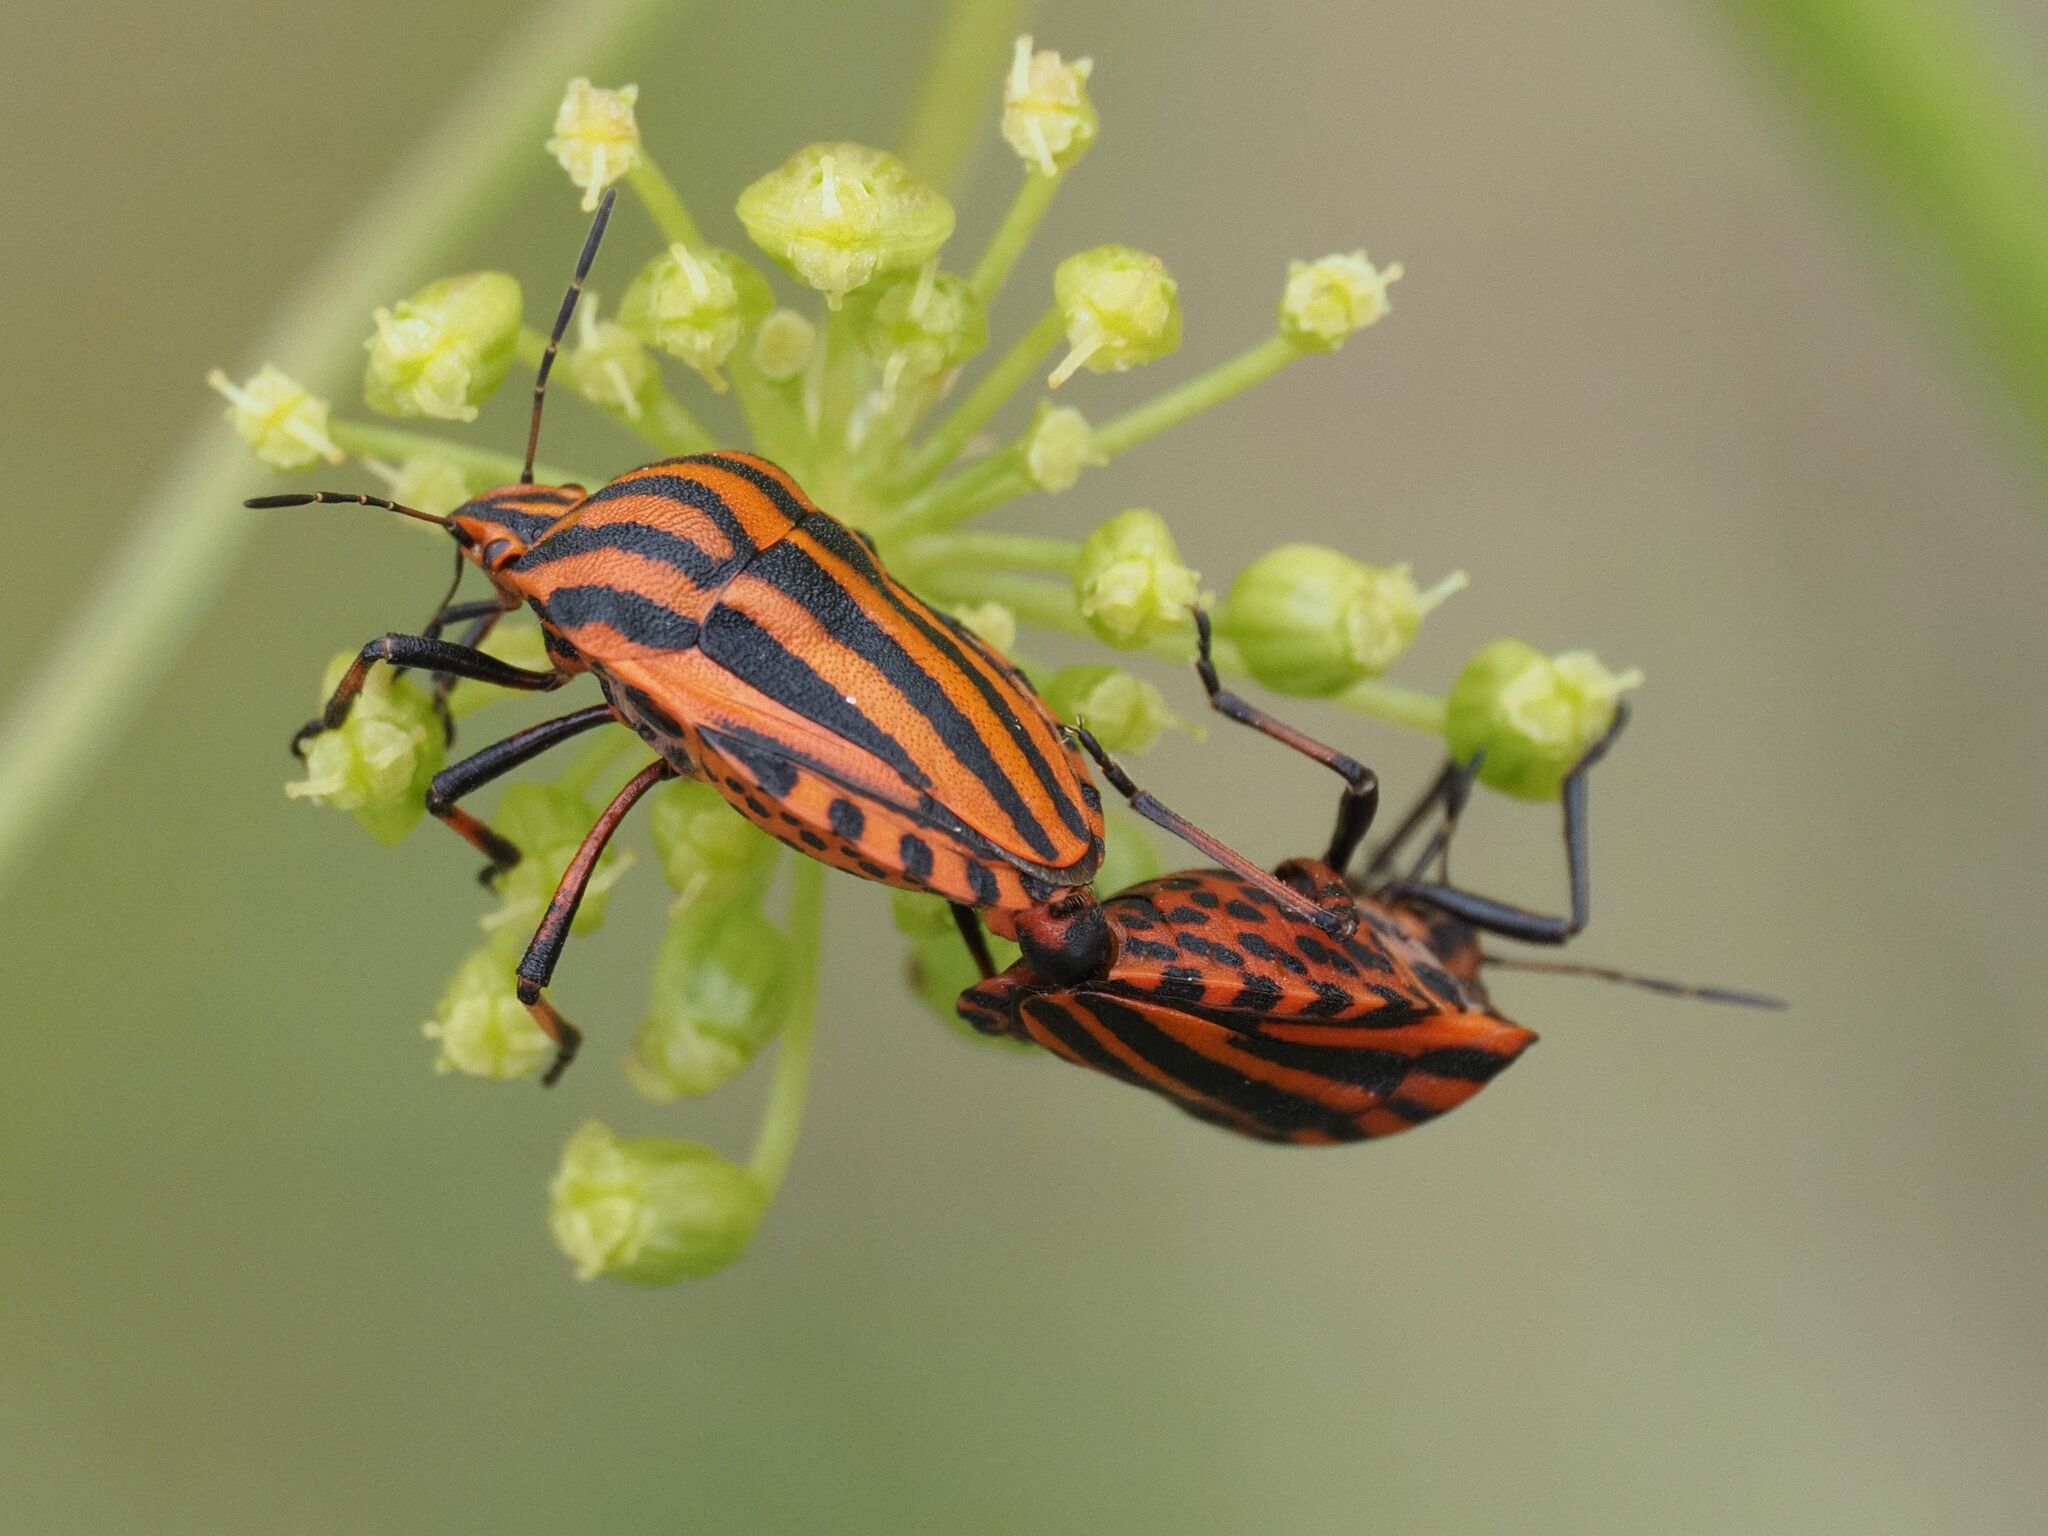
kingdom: Animalia
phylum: Arthropoda
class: Insecta
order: Hemiptera
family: Pentatomidae
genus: Graphosoma
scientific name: Graphosoma italicum
